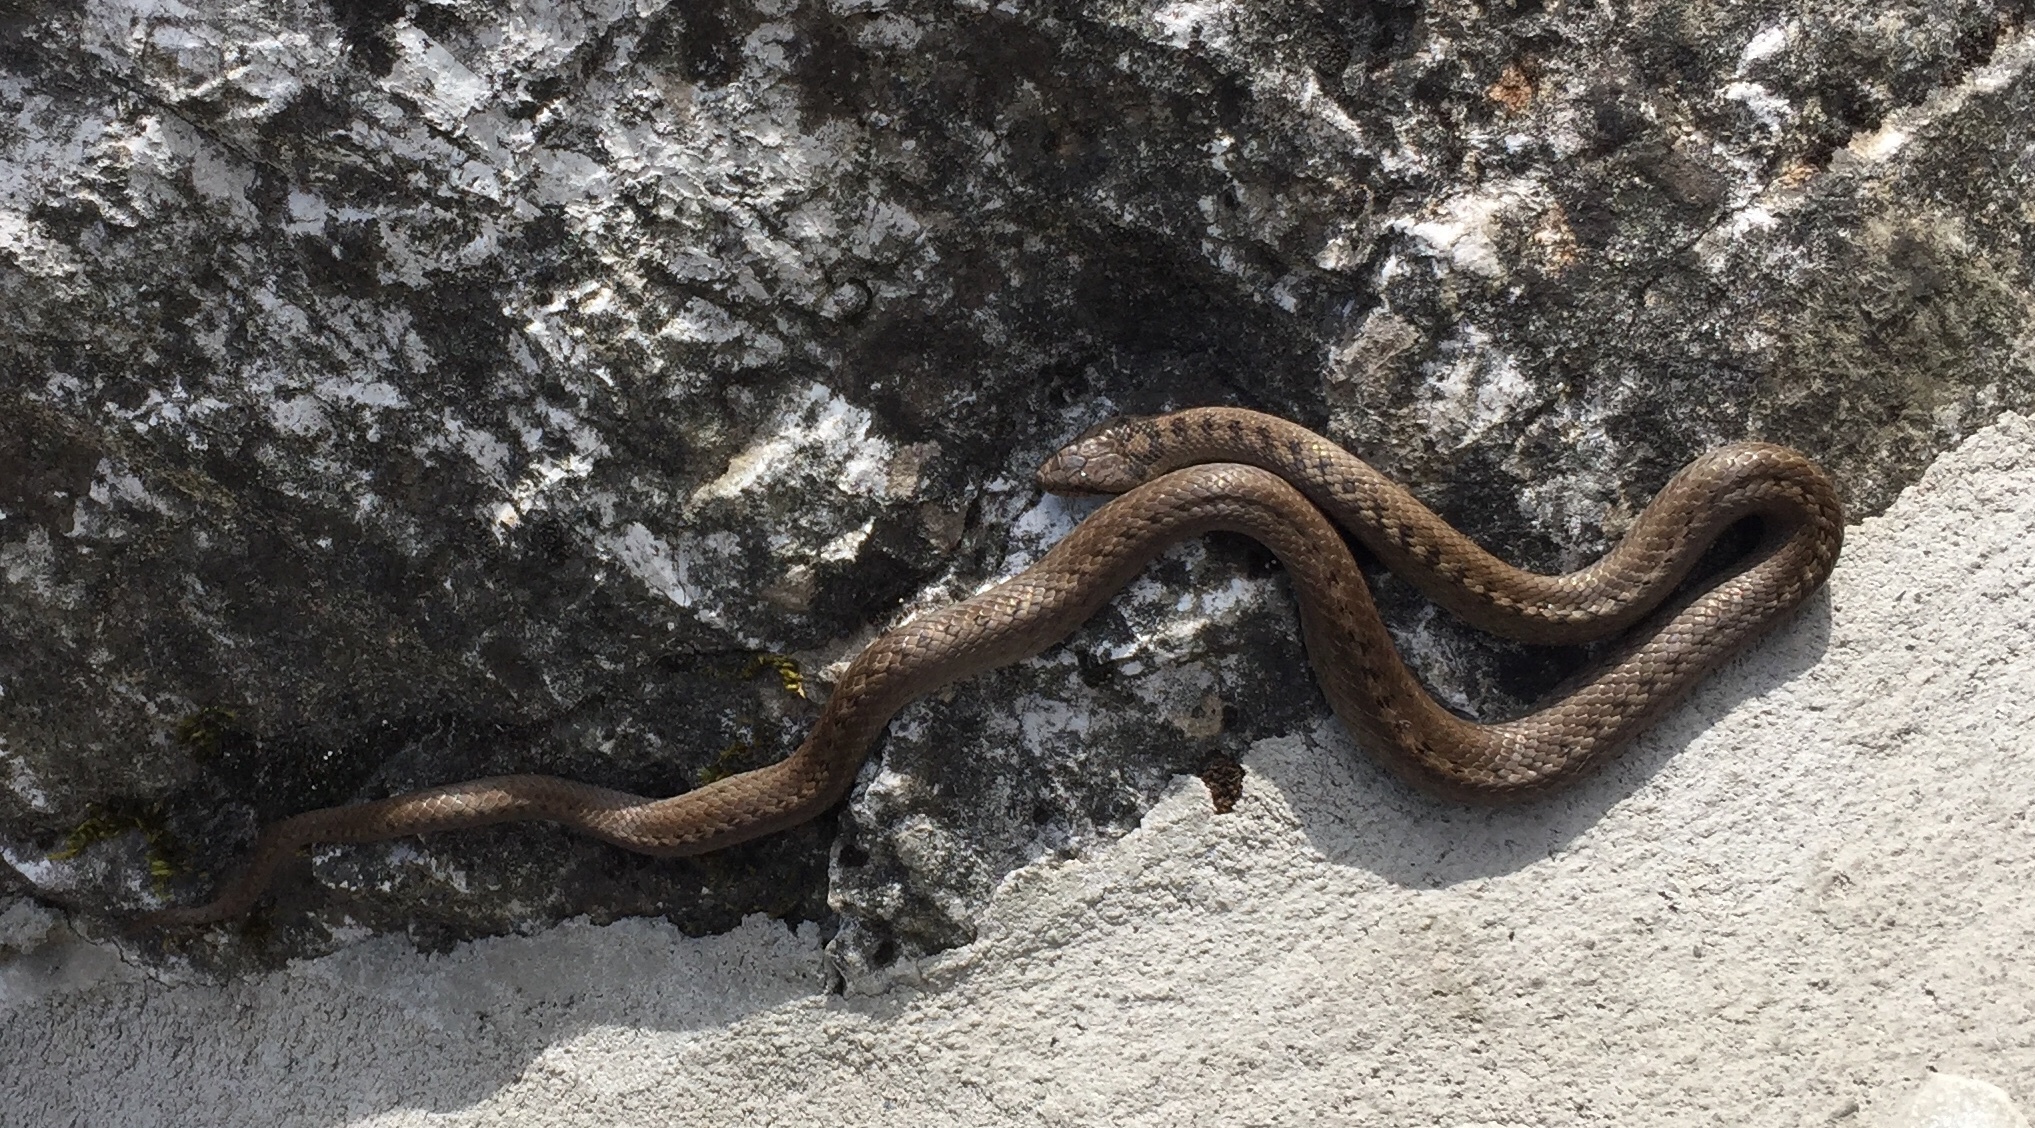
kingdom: Animalia
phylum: Chordata
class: Squamata
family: Colubridae
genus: Coronella
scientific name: Coronella austriaca
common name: Smooth snake
